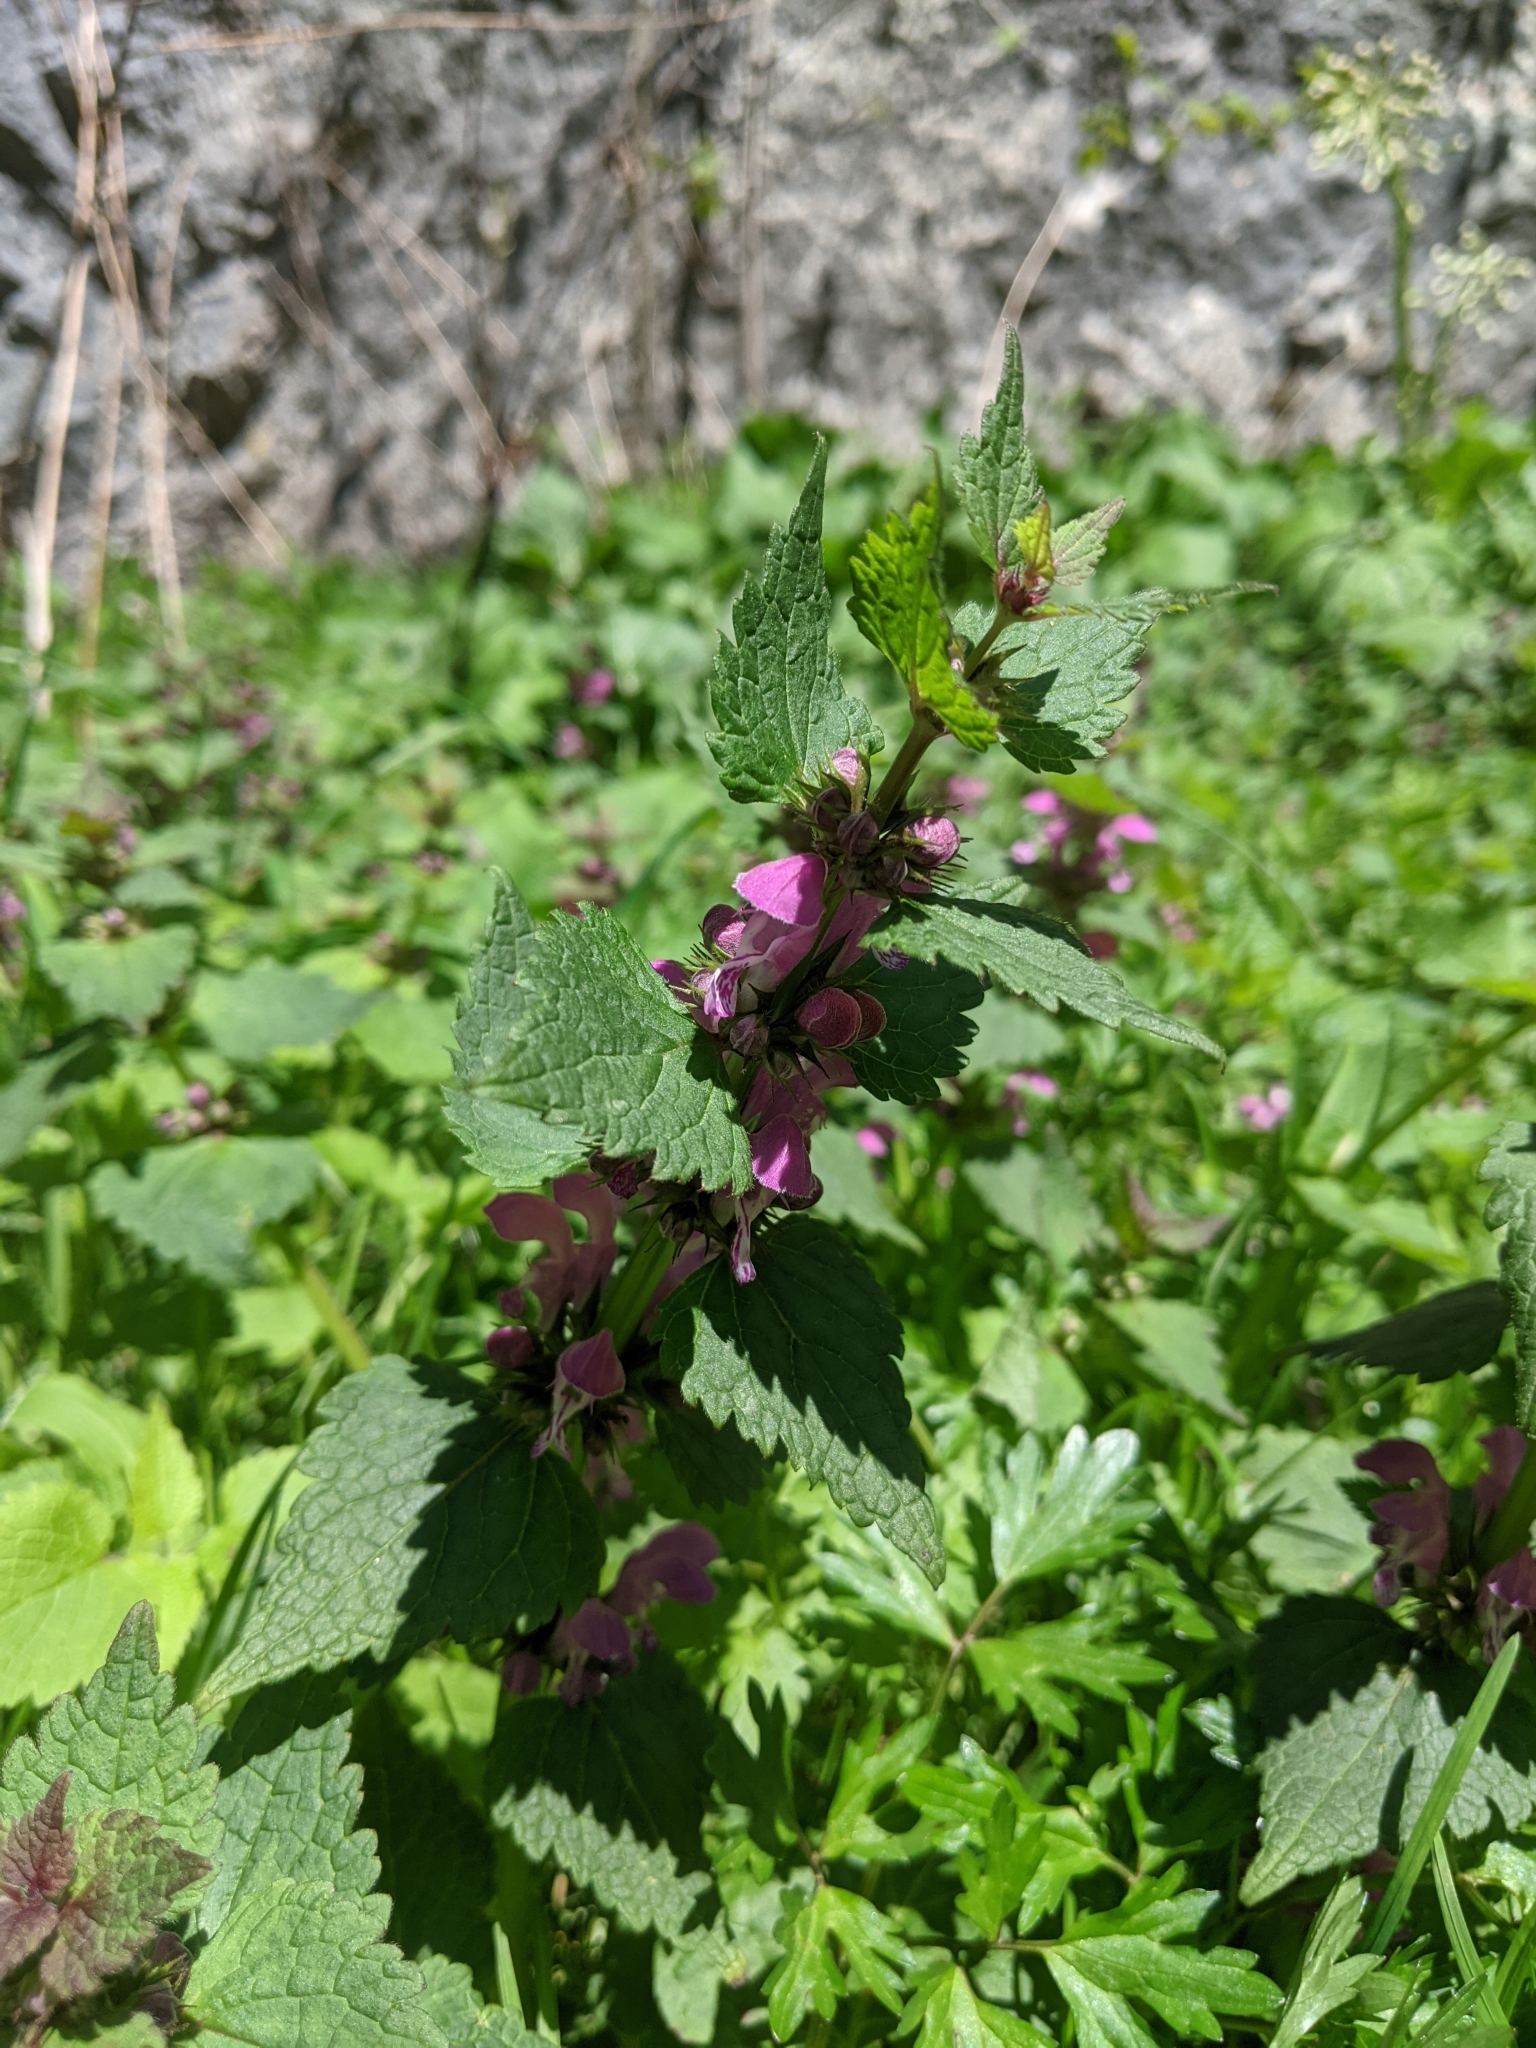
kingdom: Plantae
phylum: Tracheophyta
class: Magnoliopsida
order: Lamiales
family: Lamiaceae
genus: Lamium
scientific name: Lamium maculatum
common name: Spotted dead-nettle
